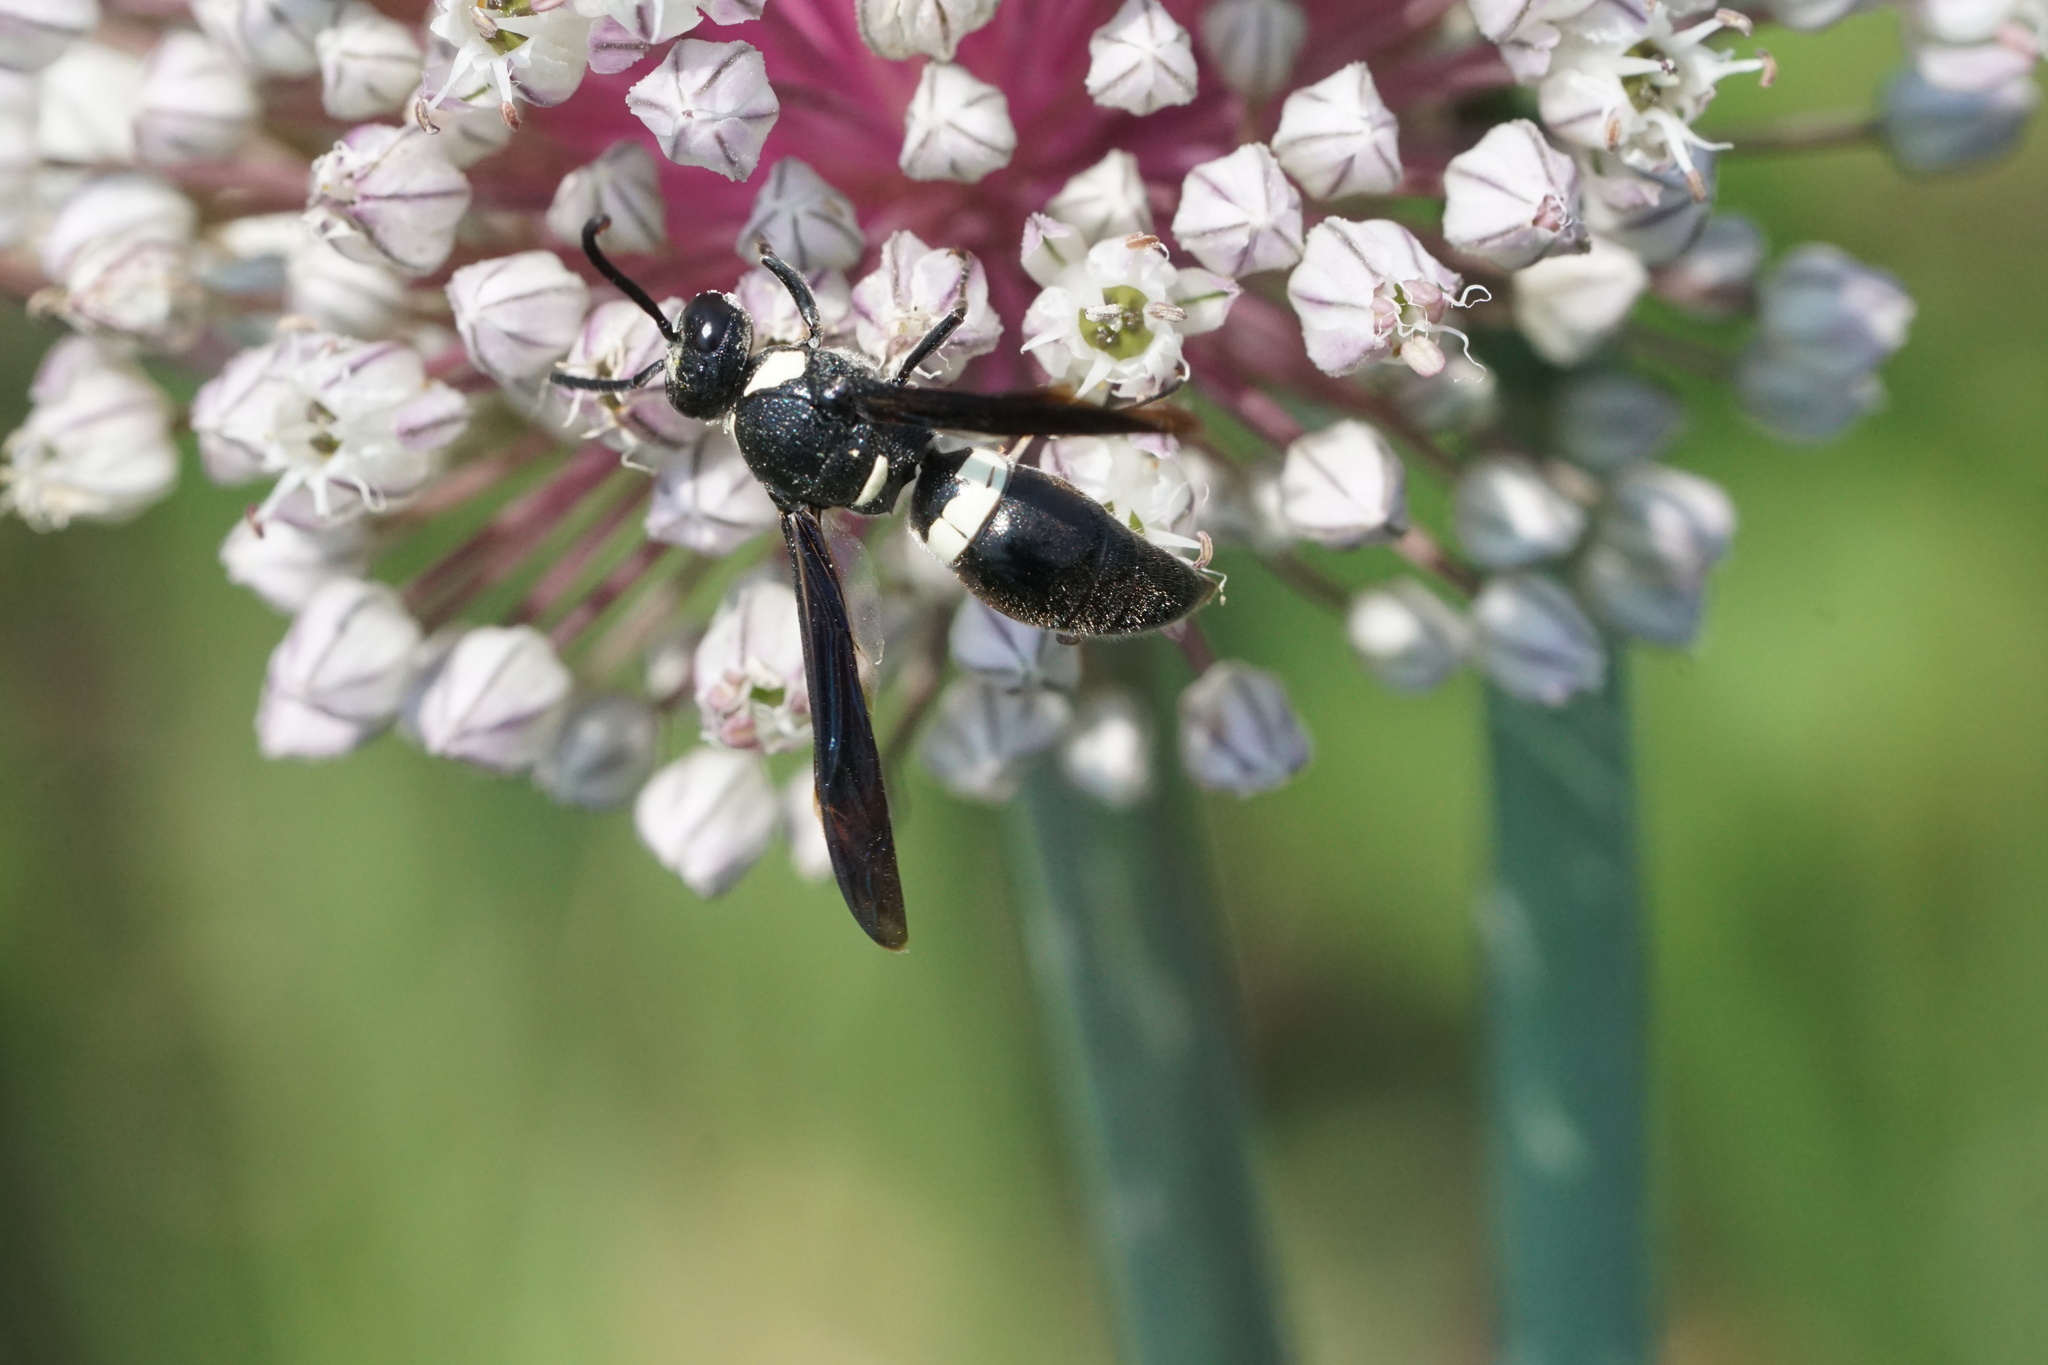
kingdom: Animalia
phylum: Arthropoda
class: Insecta
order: Hymenoptera
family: Eumenidae
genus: Monobia
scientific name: Monobia quadridens
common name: Four-toothed mason wasp
